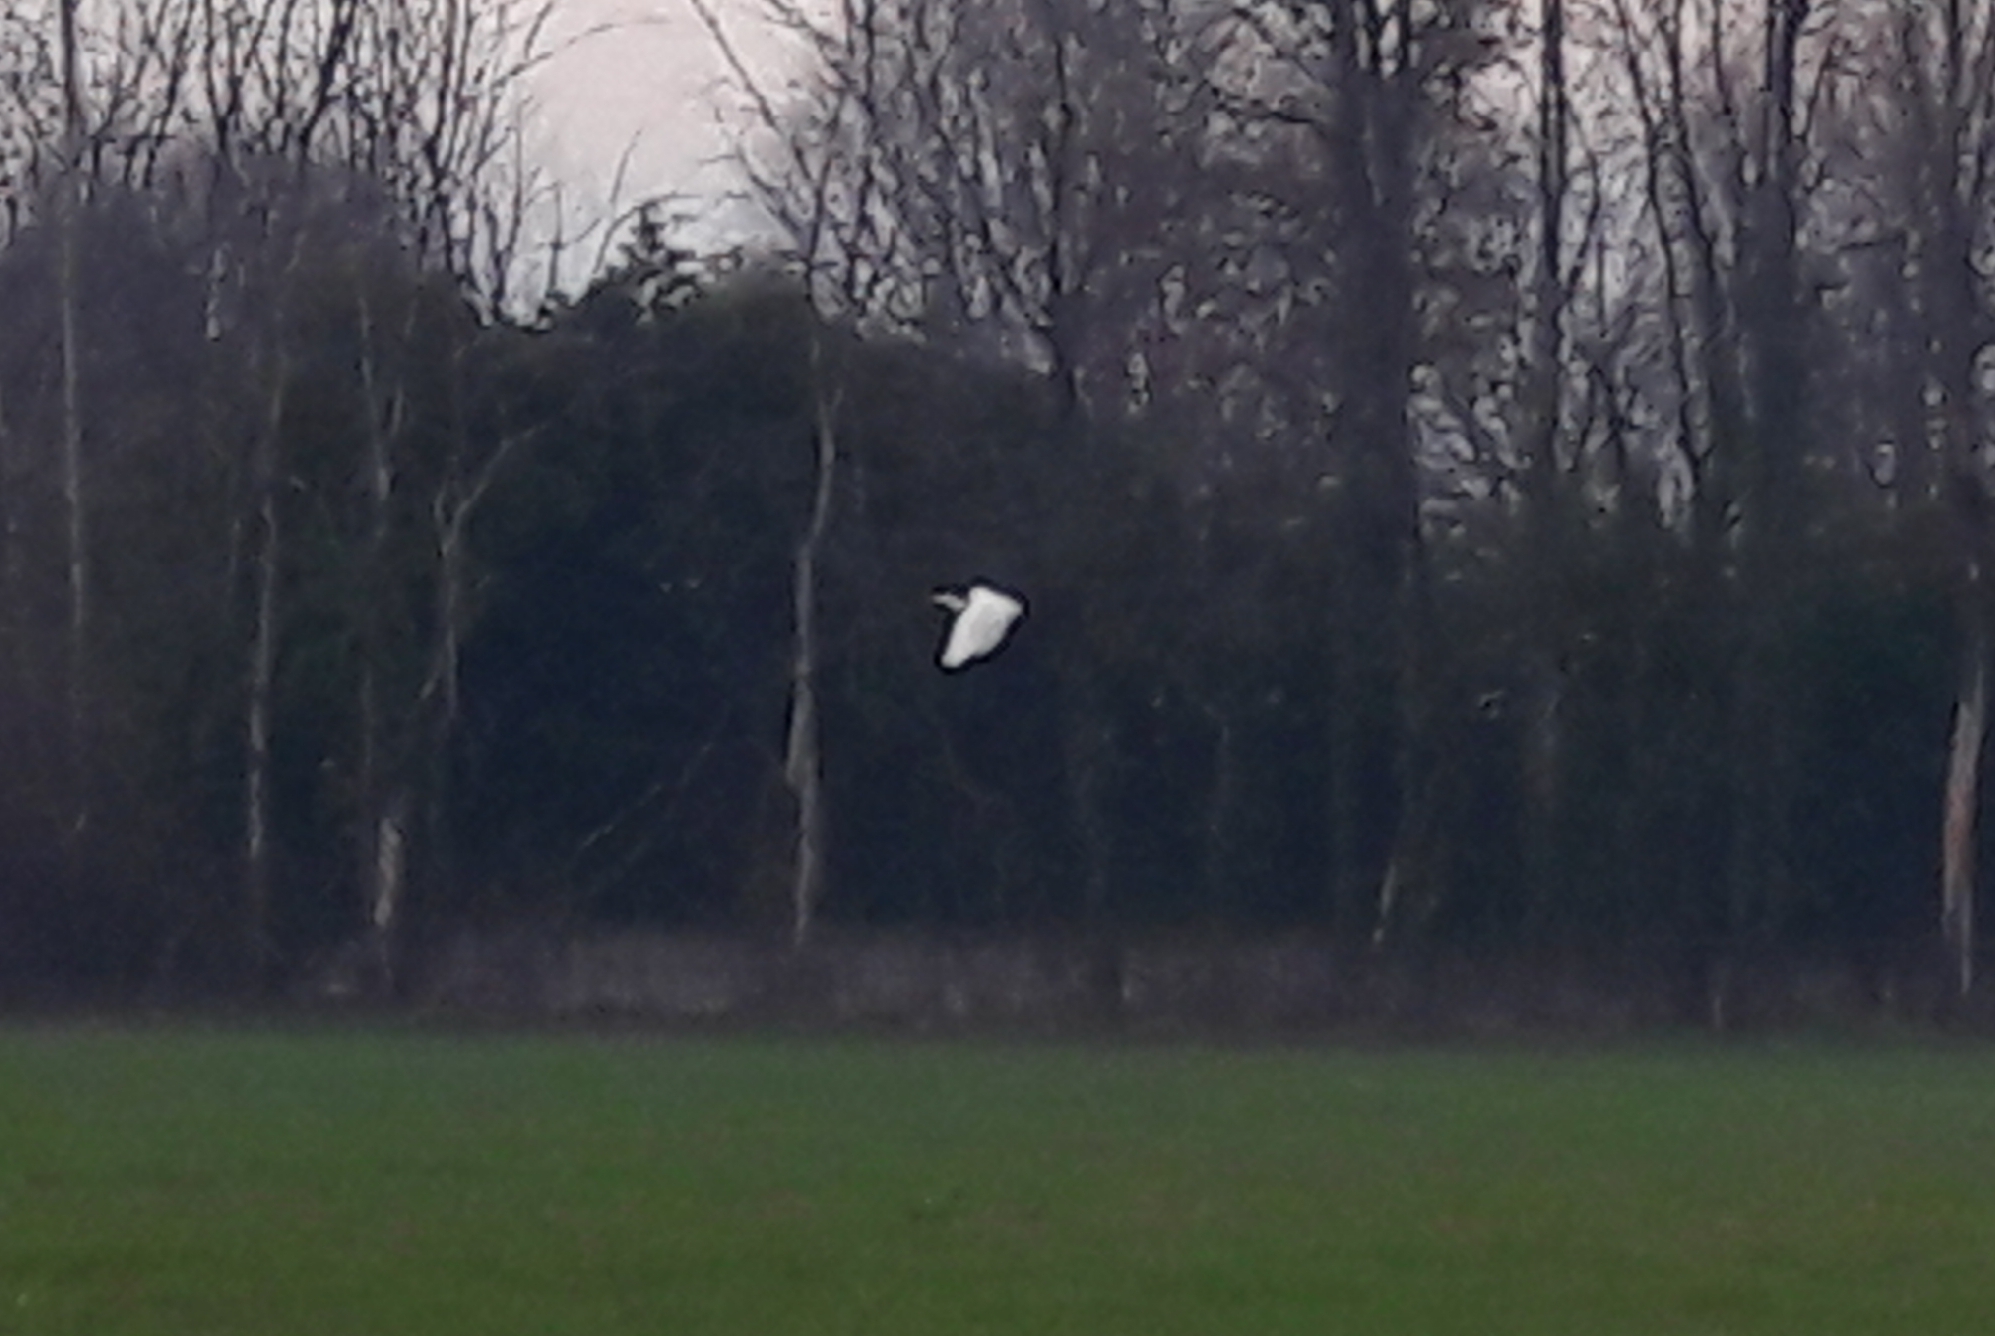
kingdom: Animalia
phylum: Chordata
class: Aves
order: Pelecaniformes
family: Ardeidae
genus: Ardea
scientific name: Ardea alba
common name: Great egret
